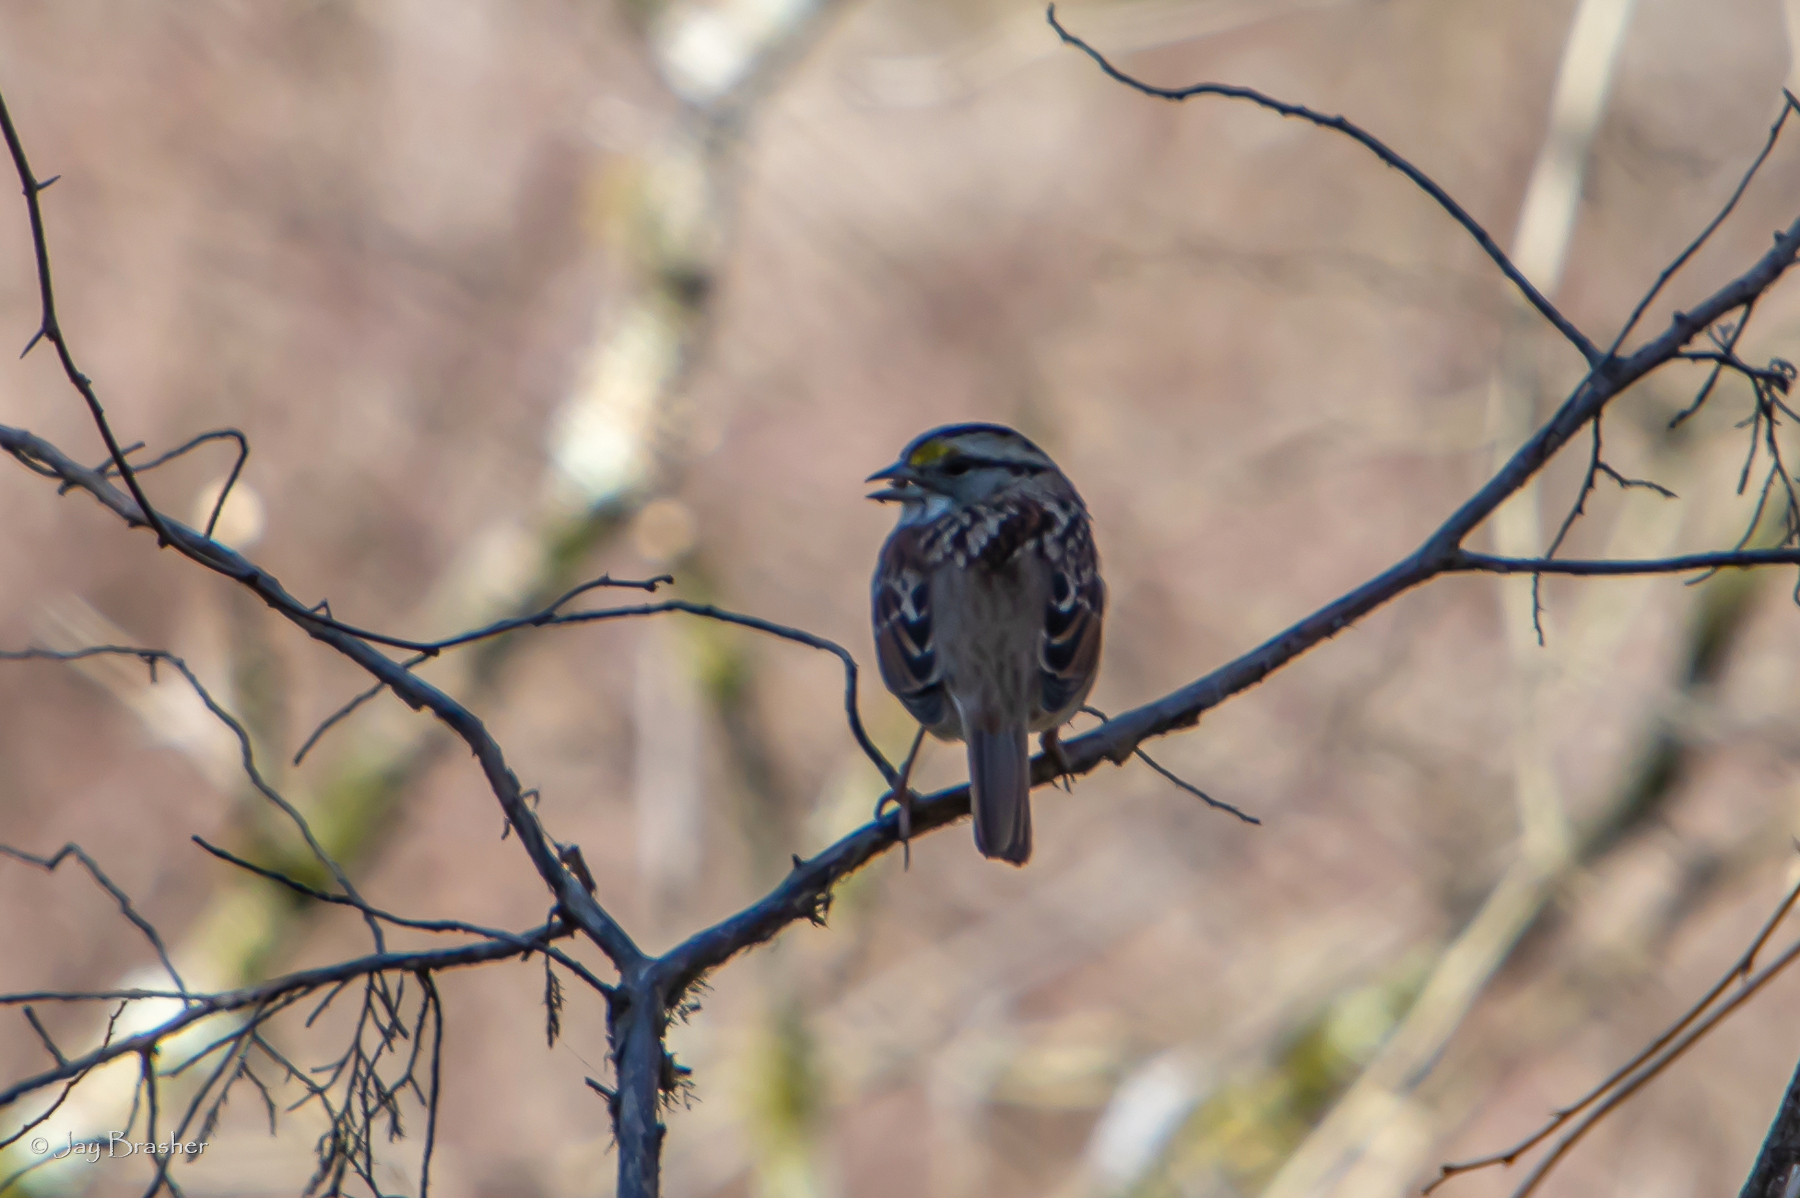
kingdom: Animalia
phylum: Chordata
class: Aves
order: Passeriformes
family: Passerellidae
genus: Zonotrichia
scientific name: Zonotrichia albicollis
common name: White-throated sparrow
